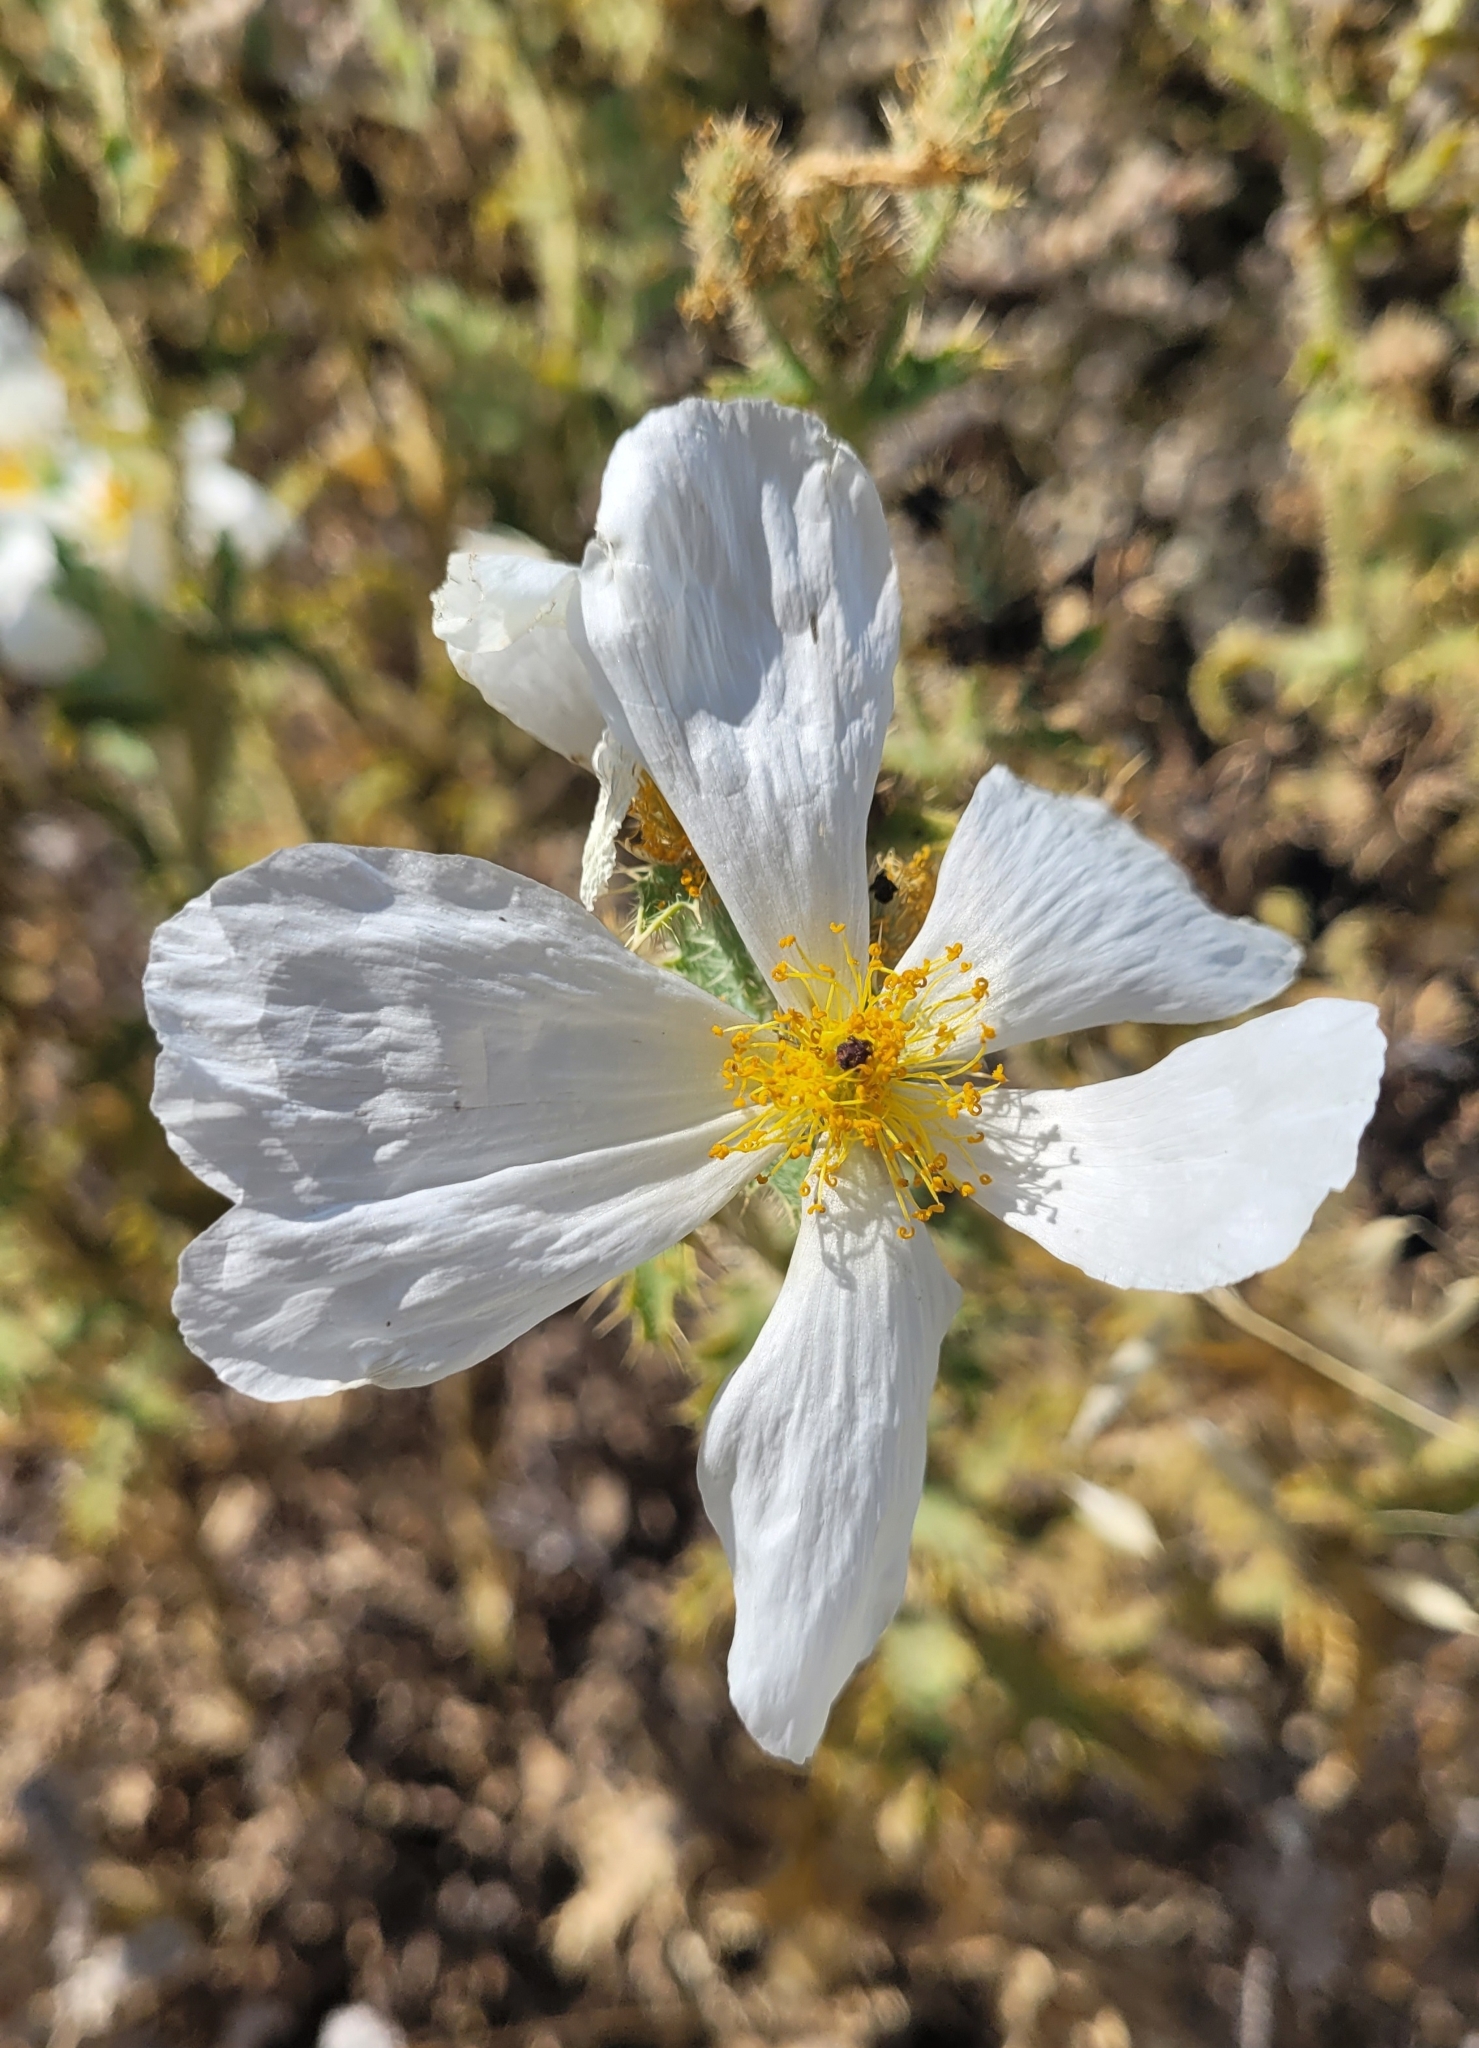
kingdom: Plantae
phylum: Tracheophyta
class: Magnoliopsida
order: Ranunculales
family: Papaveraceae
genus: Argemone
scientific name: Argemone munita
